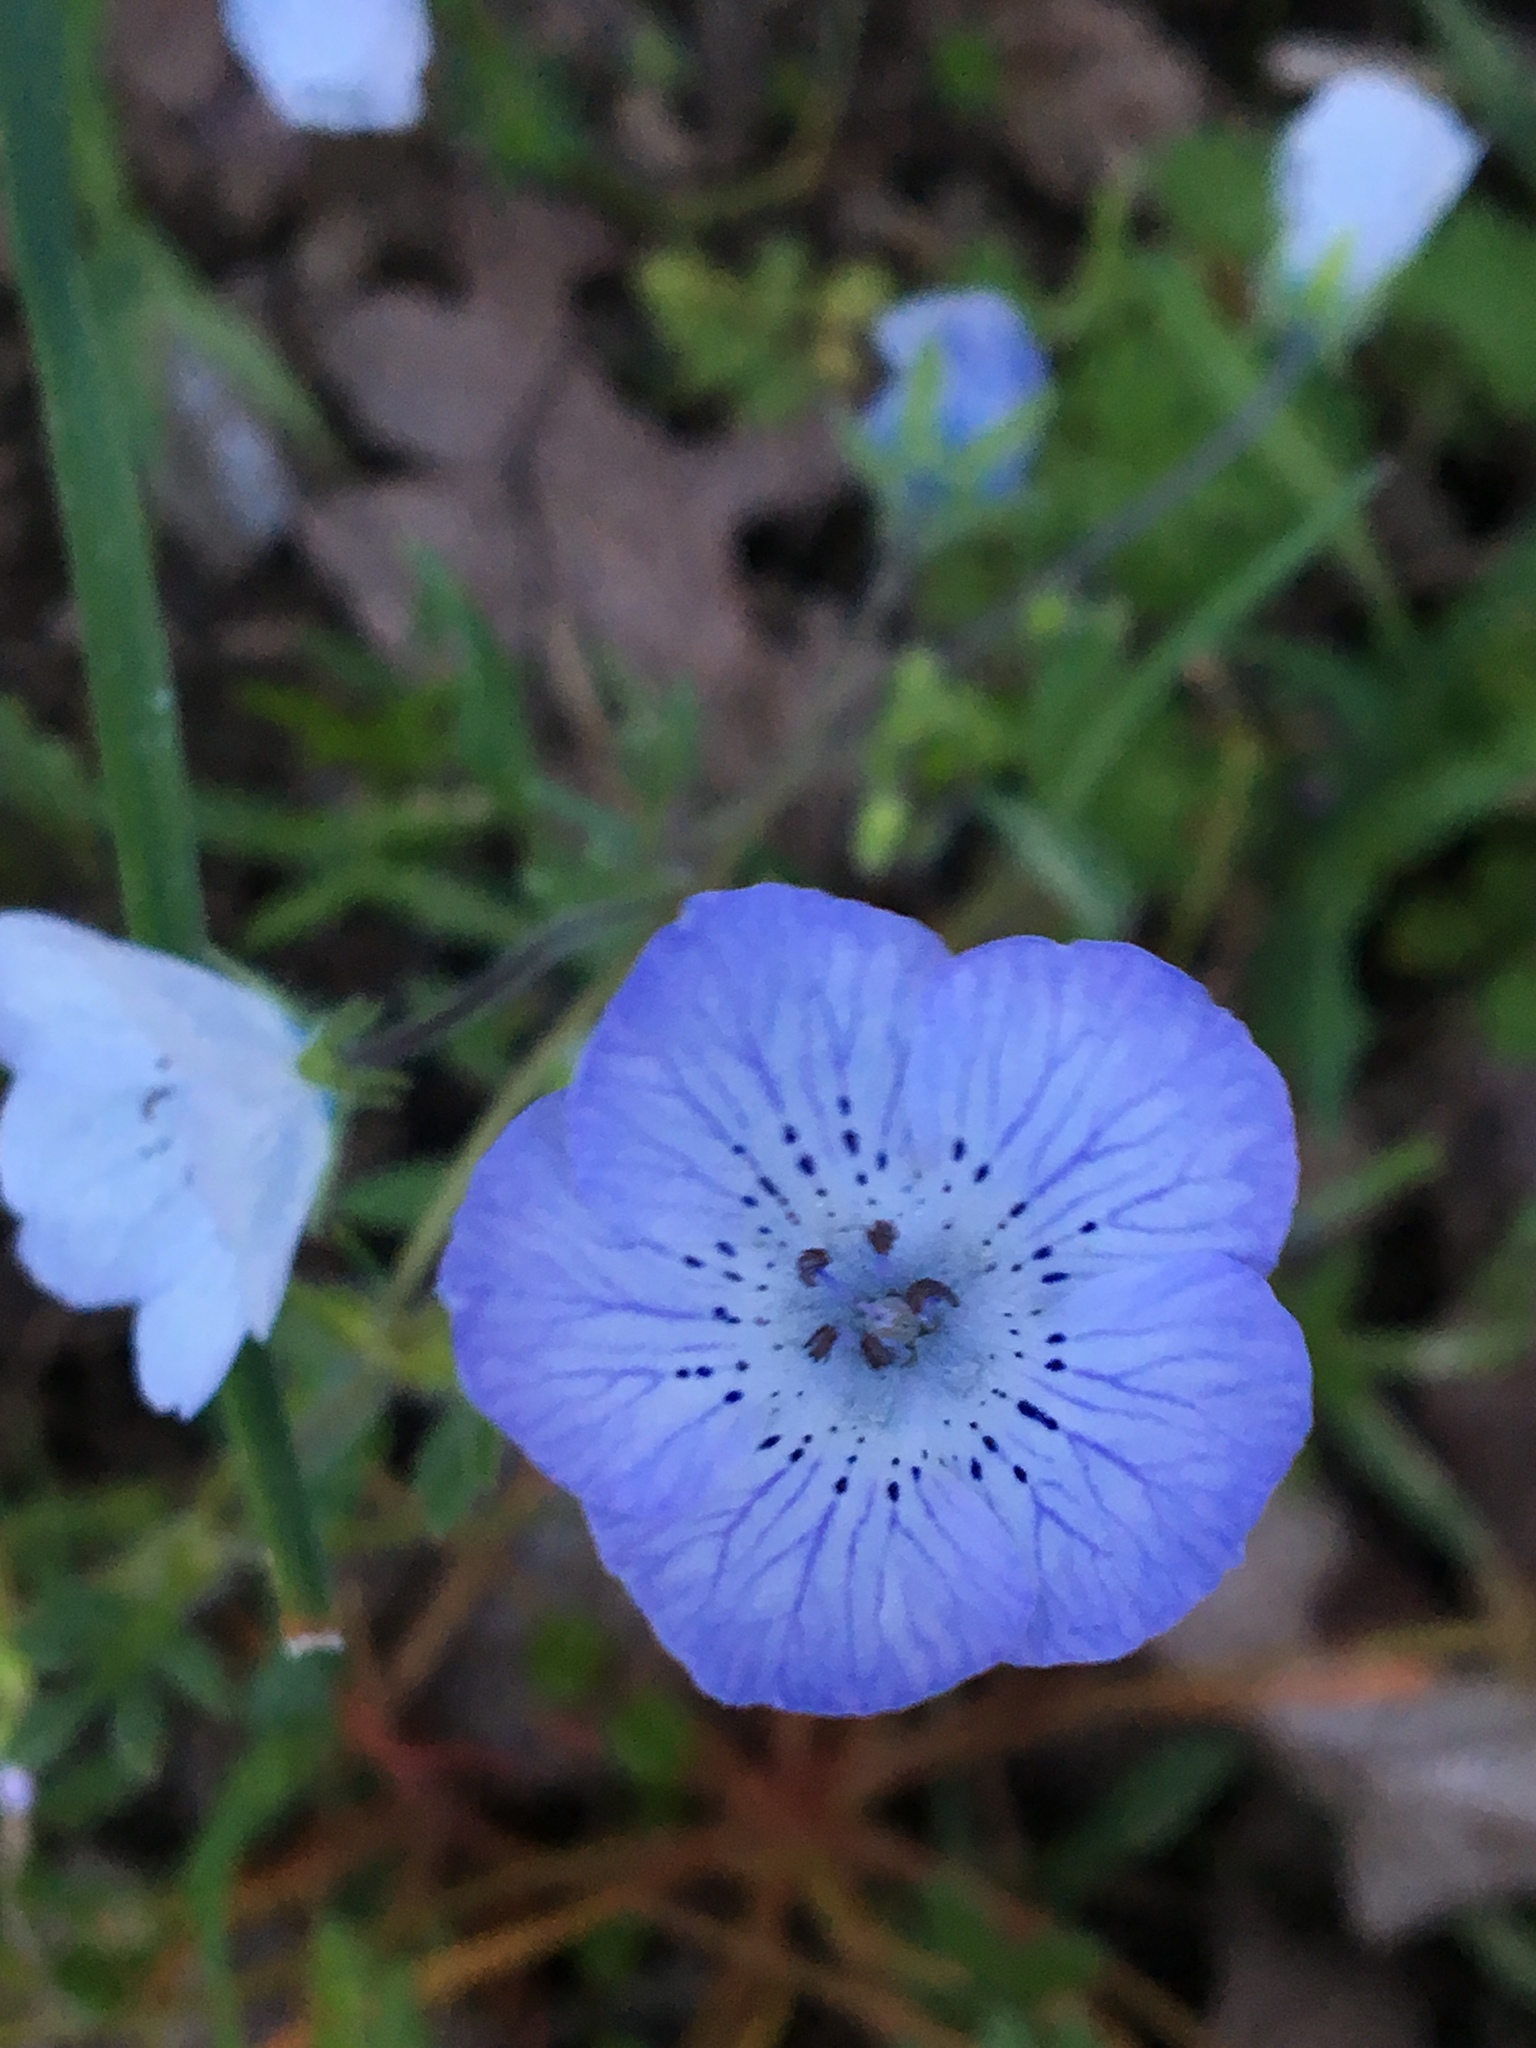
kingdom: Plantae
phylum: Tracheophyta
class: Magnoliopsida
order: Boraginales
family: Hydrophyllaceae
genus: Nemophila
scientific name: Nemophila menziesii
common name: Baby's-blue-eyes
